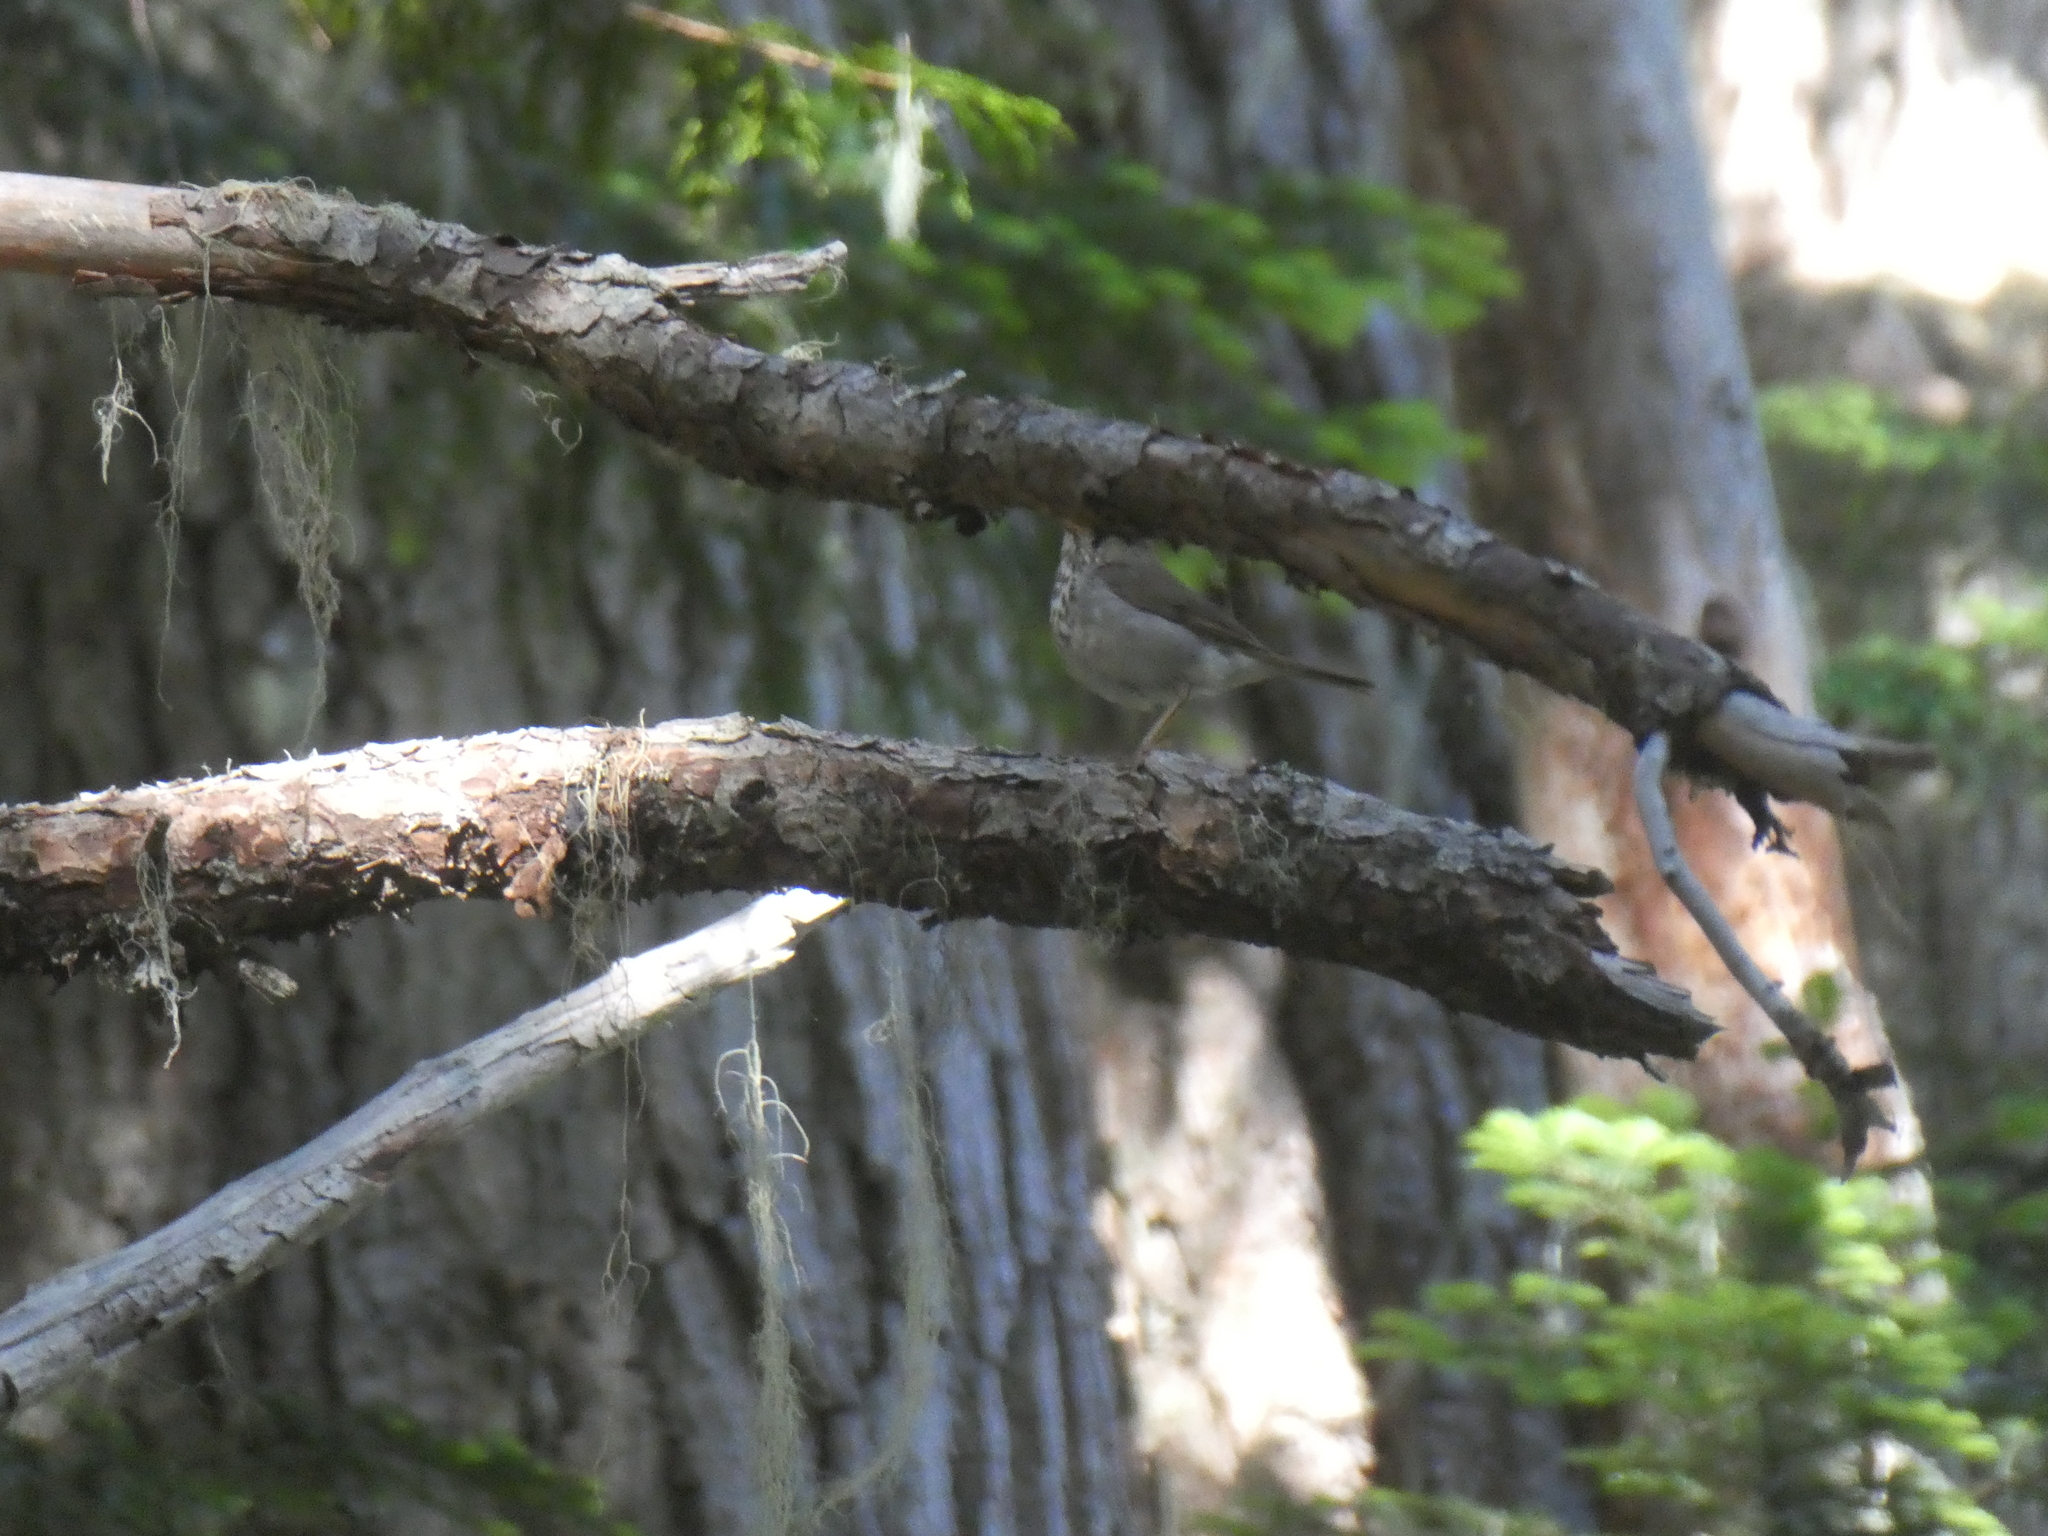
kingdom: Animalia
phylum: Chordata
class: Aves
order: Passeriformes
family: Turdidae
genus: Catharus
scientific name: Catharus ustulatus
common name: Swainson's thrush
